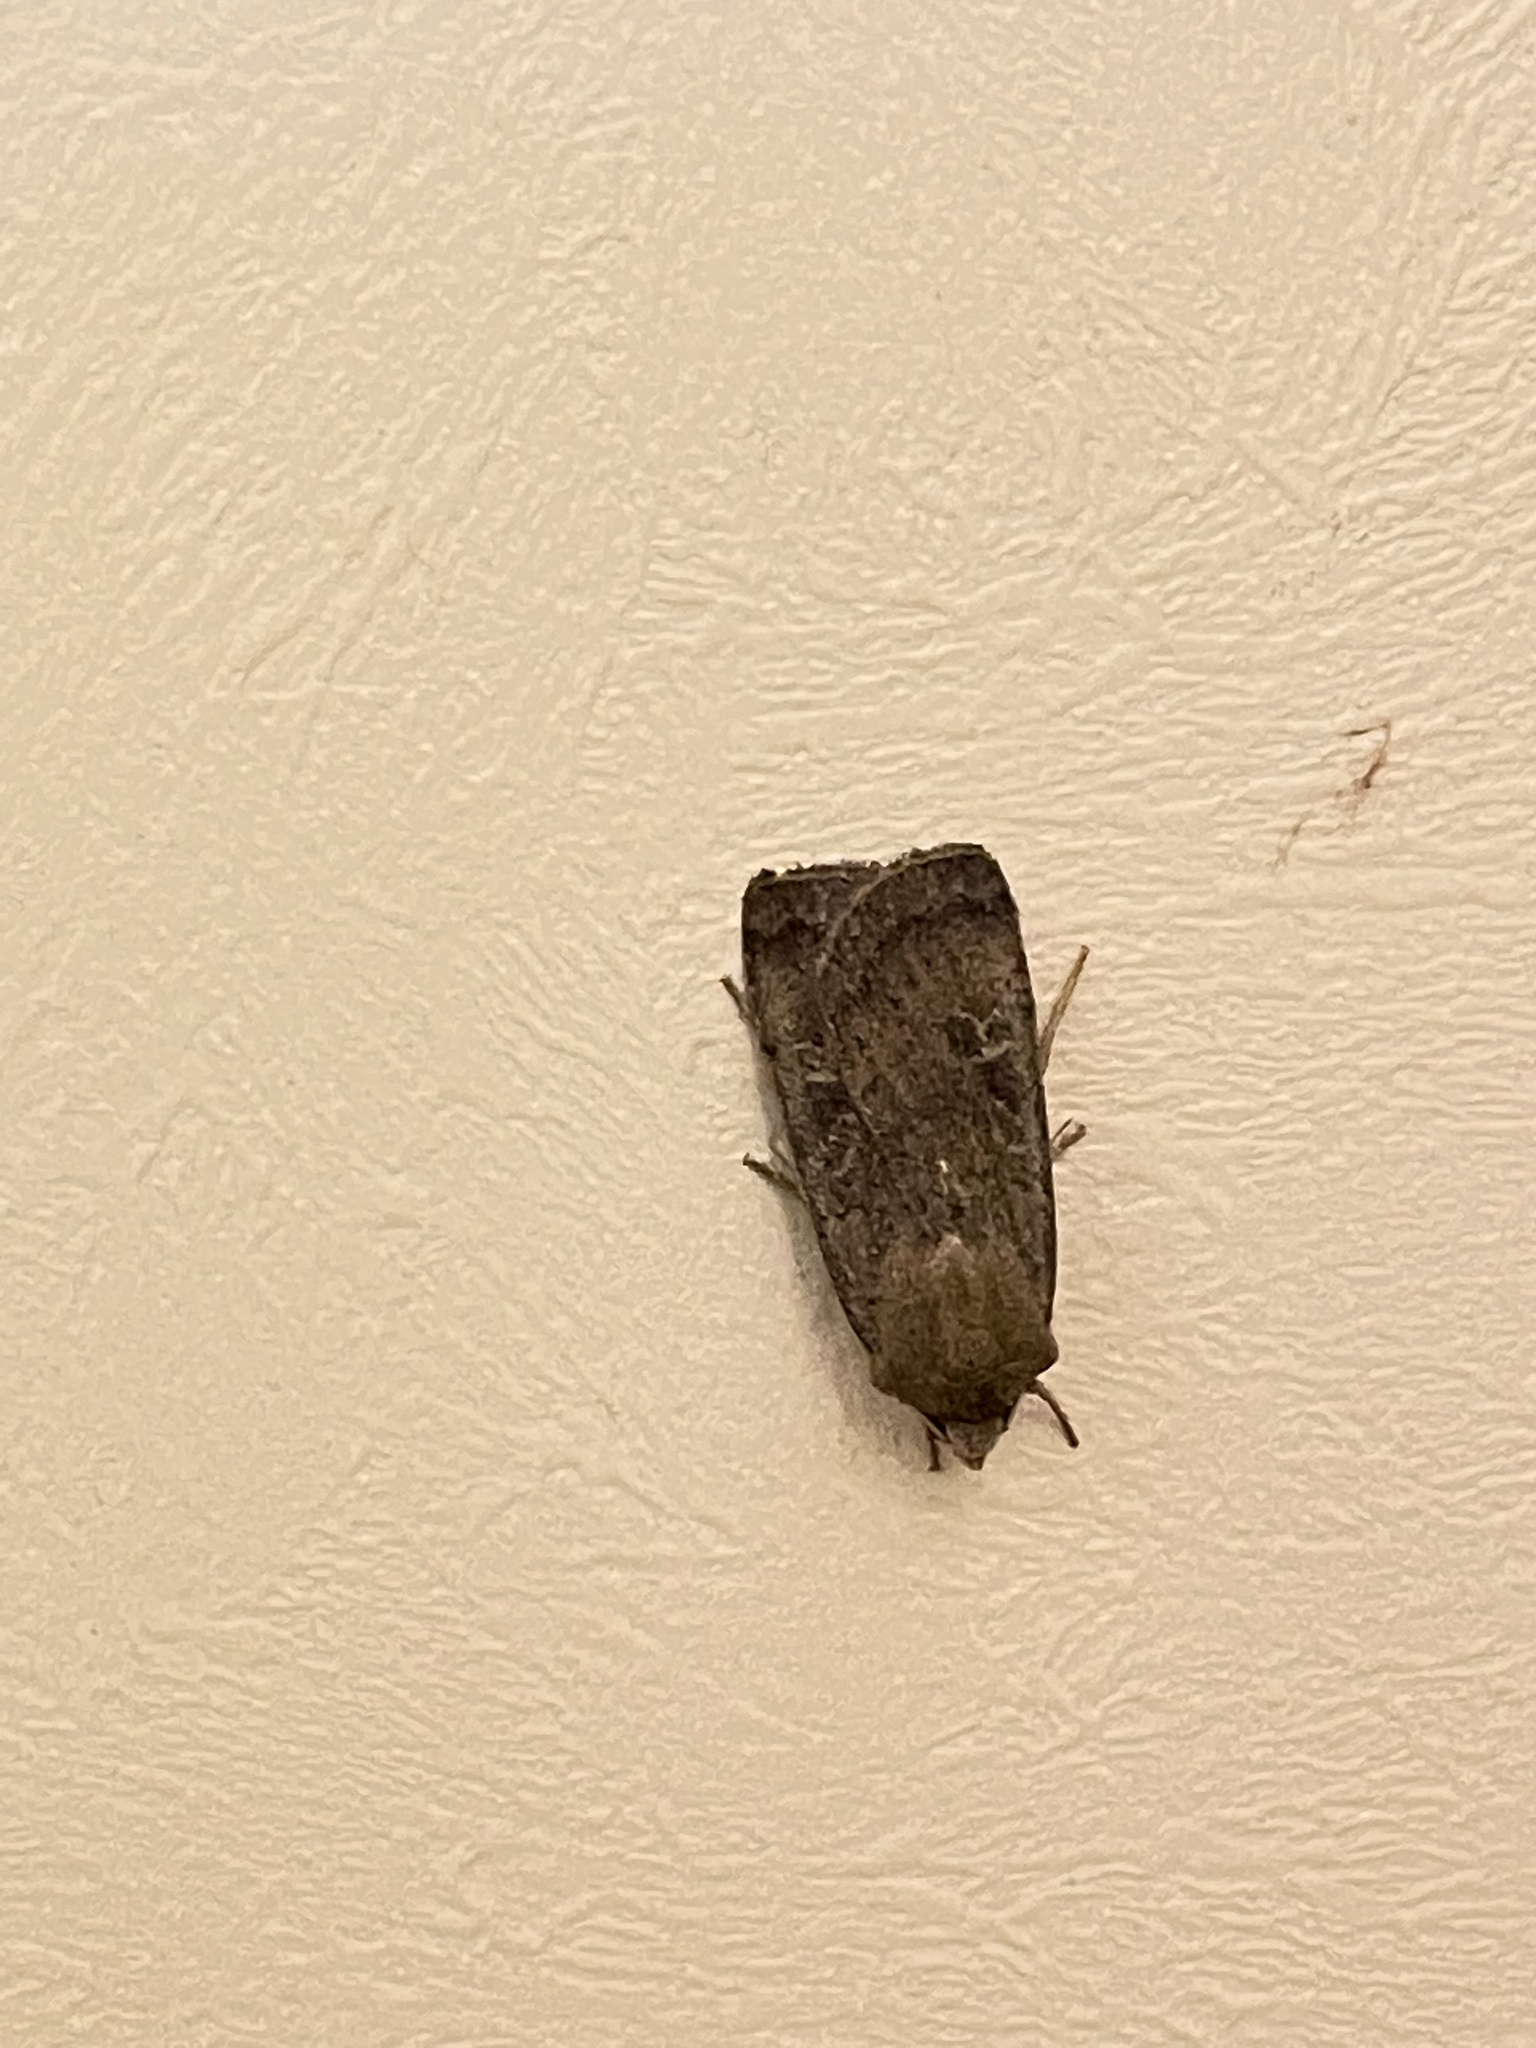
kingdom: Animalia
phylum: Arthropoda
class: Insecta
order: Lepidoptera
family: Noctuidae
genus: Xestia
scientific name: Xestia xanthographa
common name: Square-spot rustic
